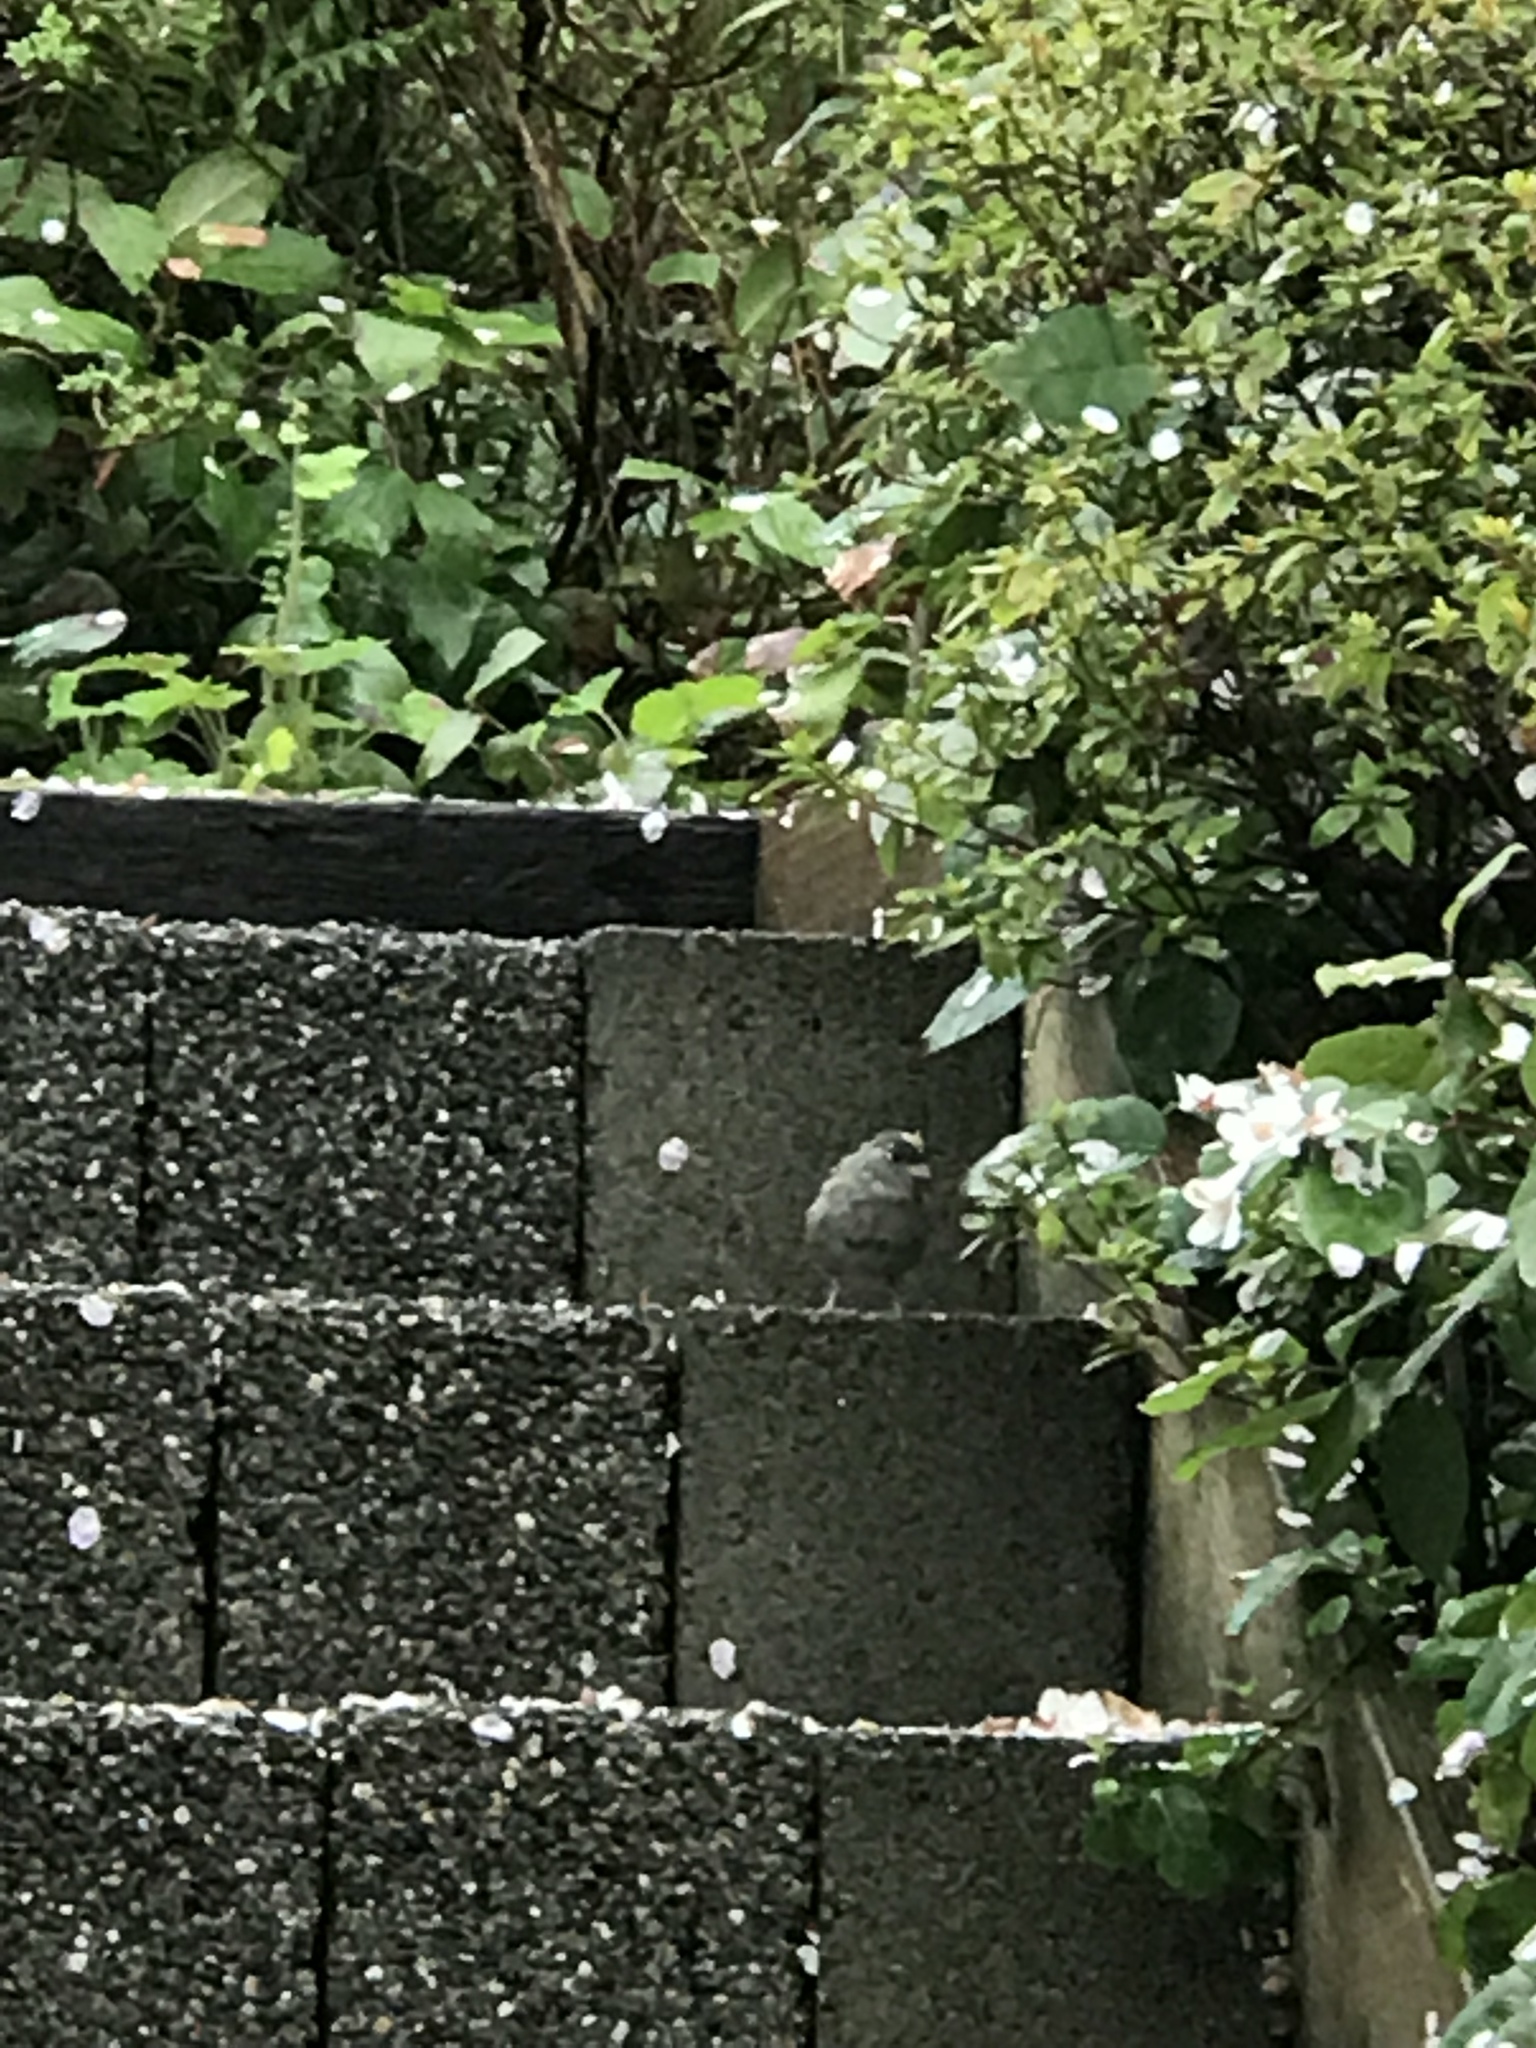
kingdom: Animalia
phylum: Chordata
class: Aves
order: Passeriformes
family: Passerellidae
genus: Zonotrichia
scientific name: Zonotrichia atricapilla
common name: Golden-crowned sparrow
